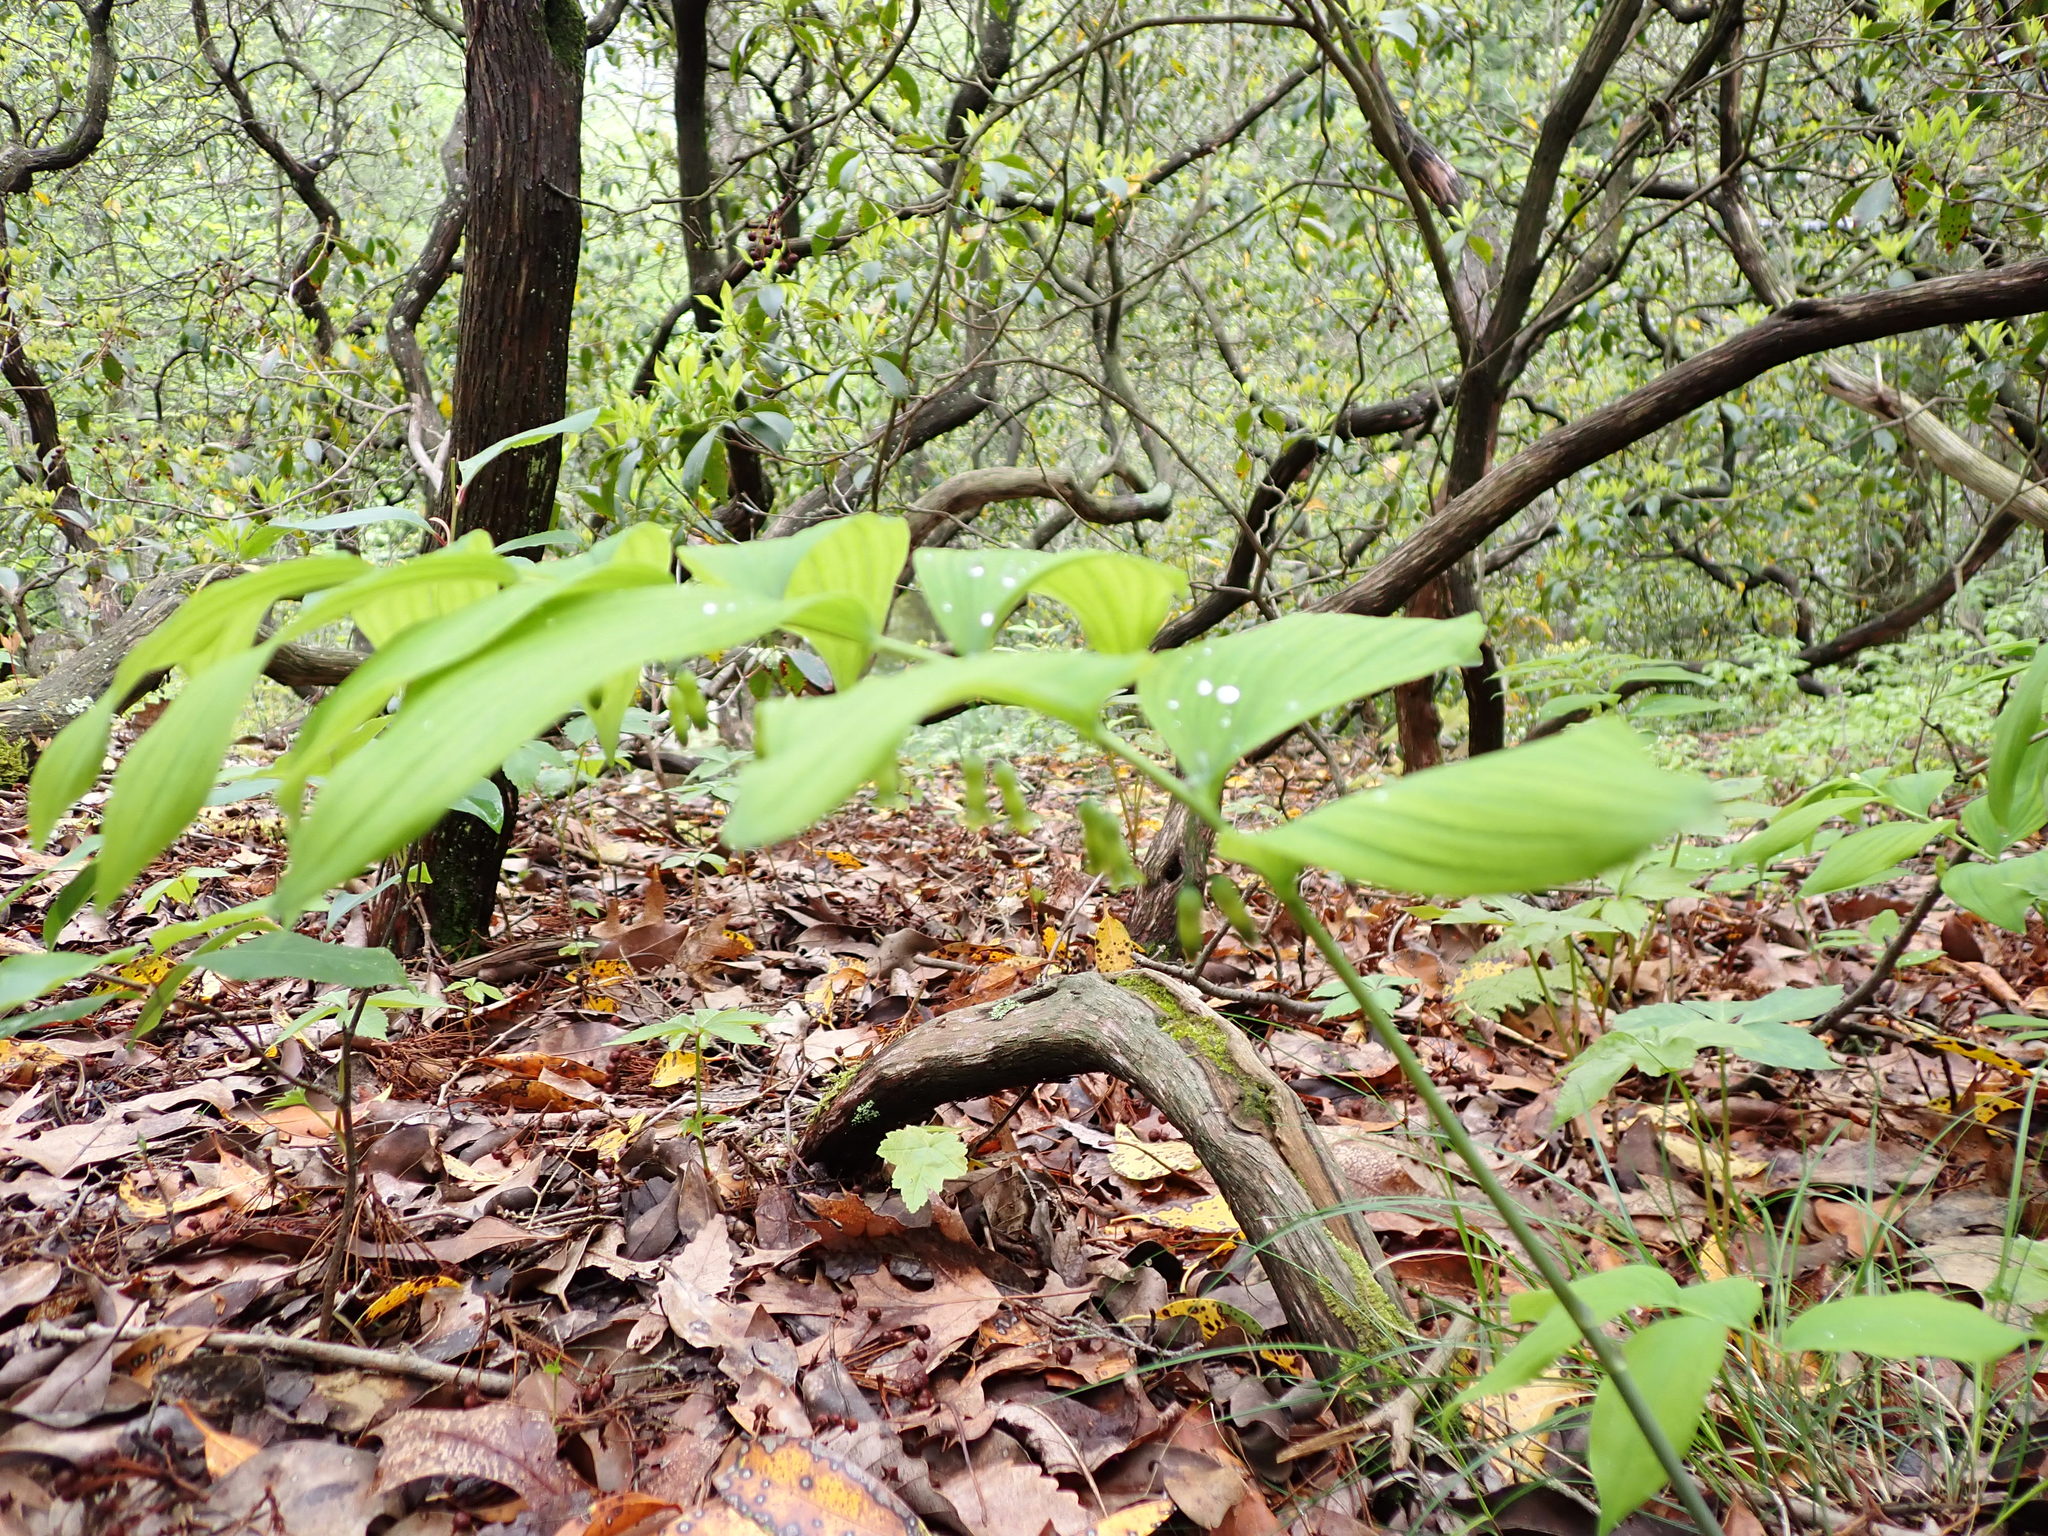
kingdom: Plantae
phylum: Tracheophyta
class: Liliopsida
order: Asparagales
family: Asparagaceae
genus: Polygonatum
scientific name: Polygonatum pubescens
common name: Downy solomon's seal
